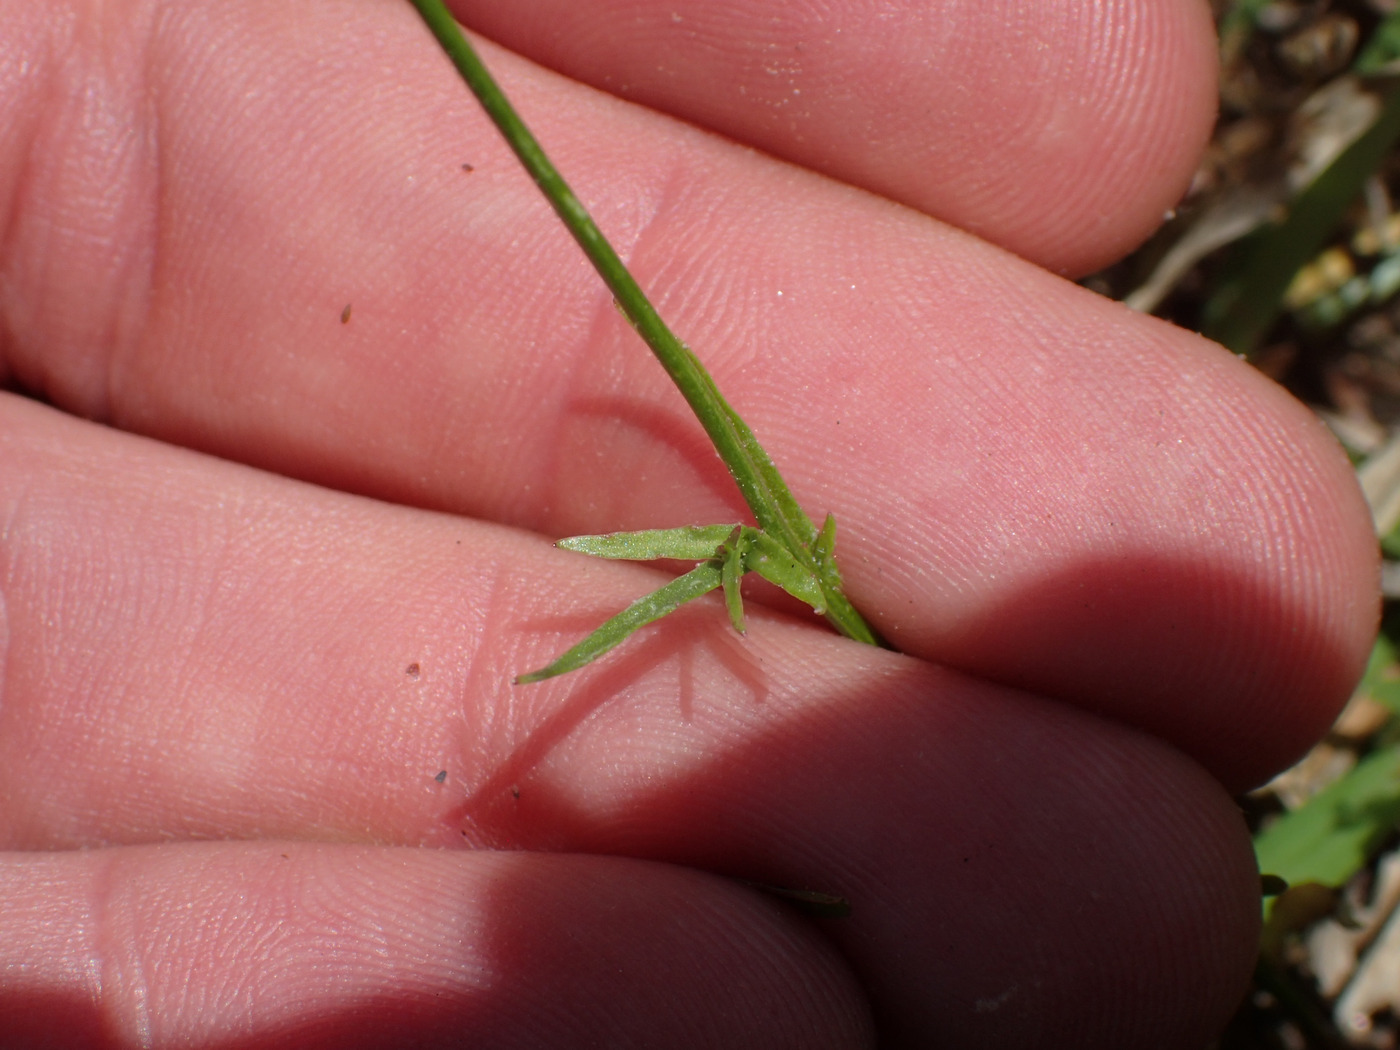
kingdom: Plantae
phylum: Tracheophyta
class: Magnoliopsida
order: Asterales
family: Campanulaceae
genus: Wahlenbergia
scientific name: Wahlenbergia marginata
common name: Southern rockbell
